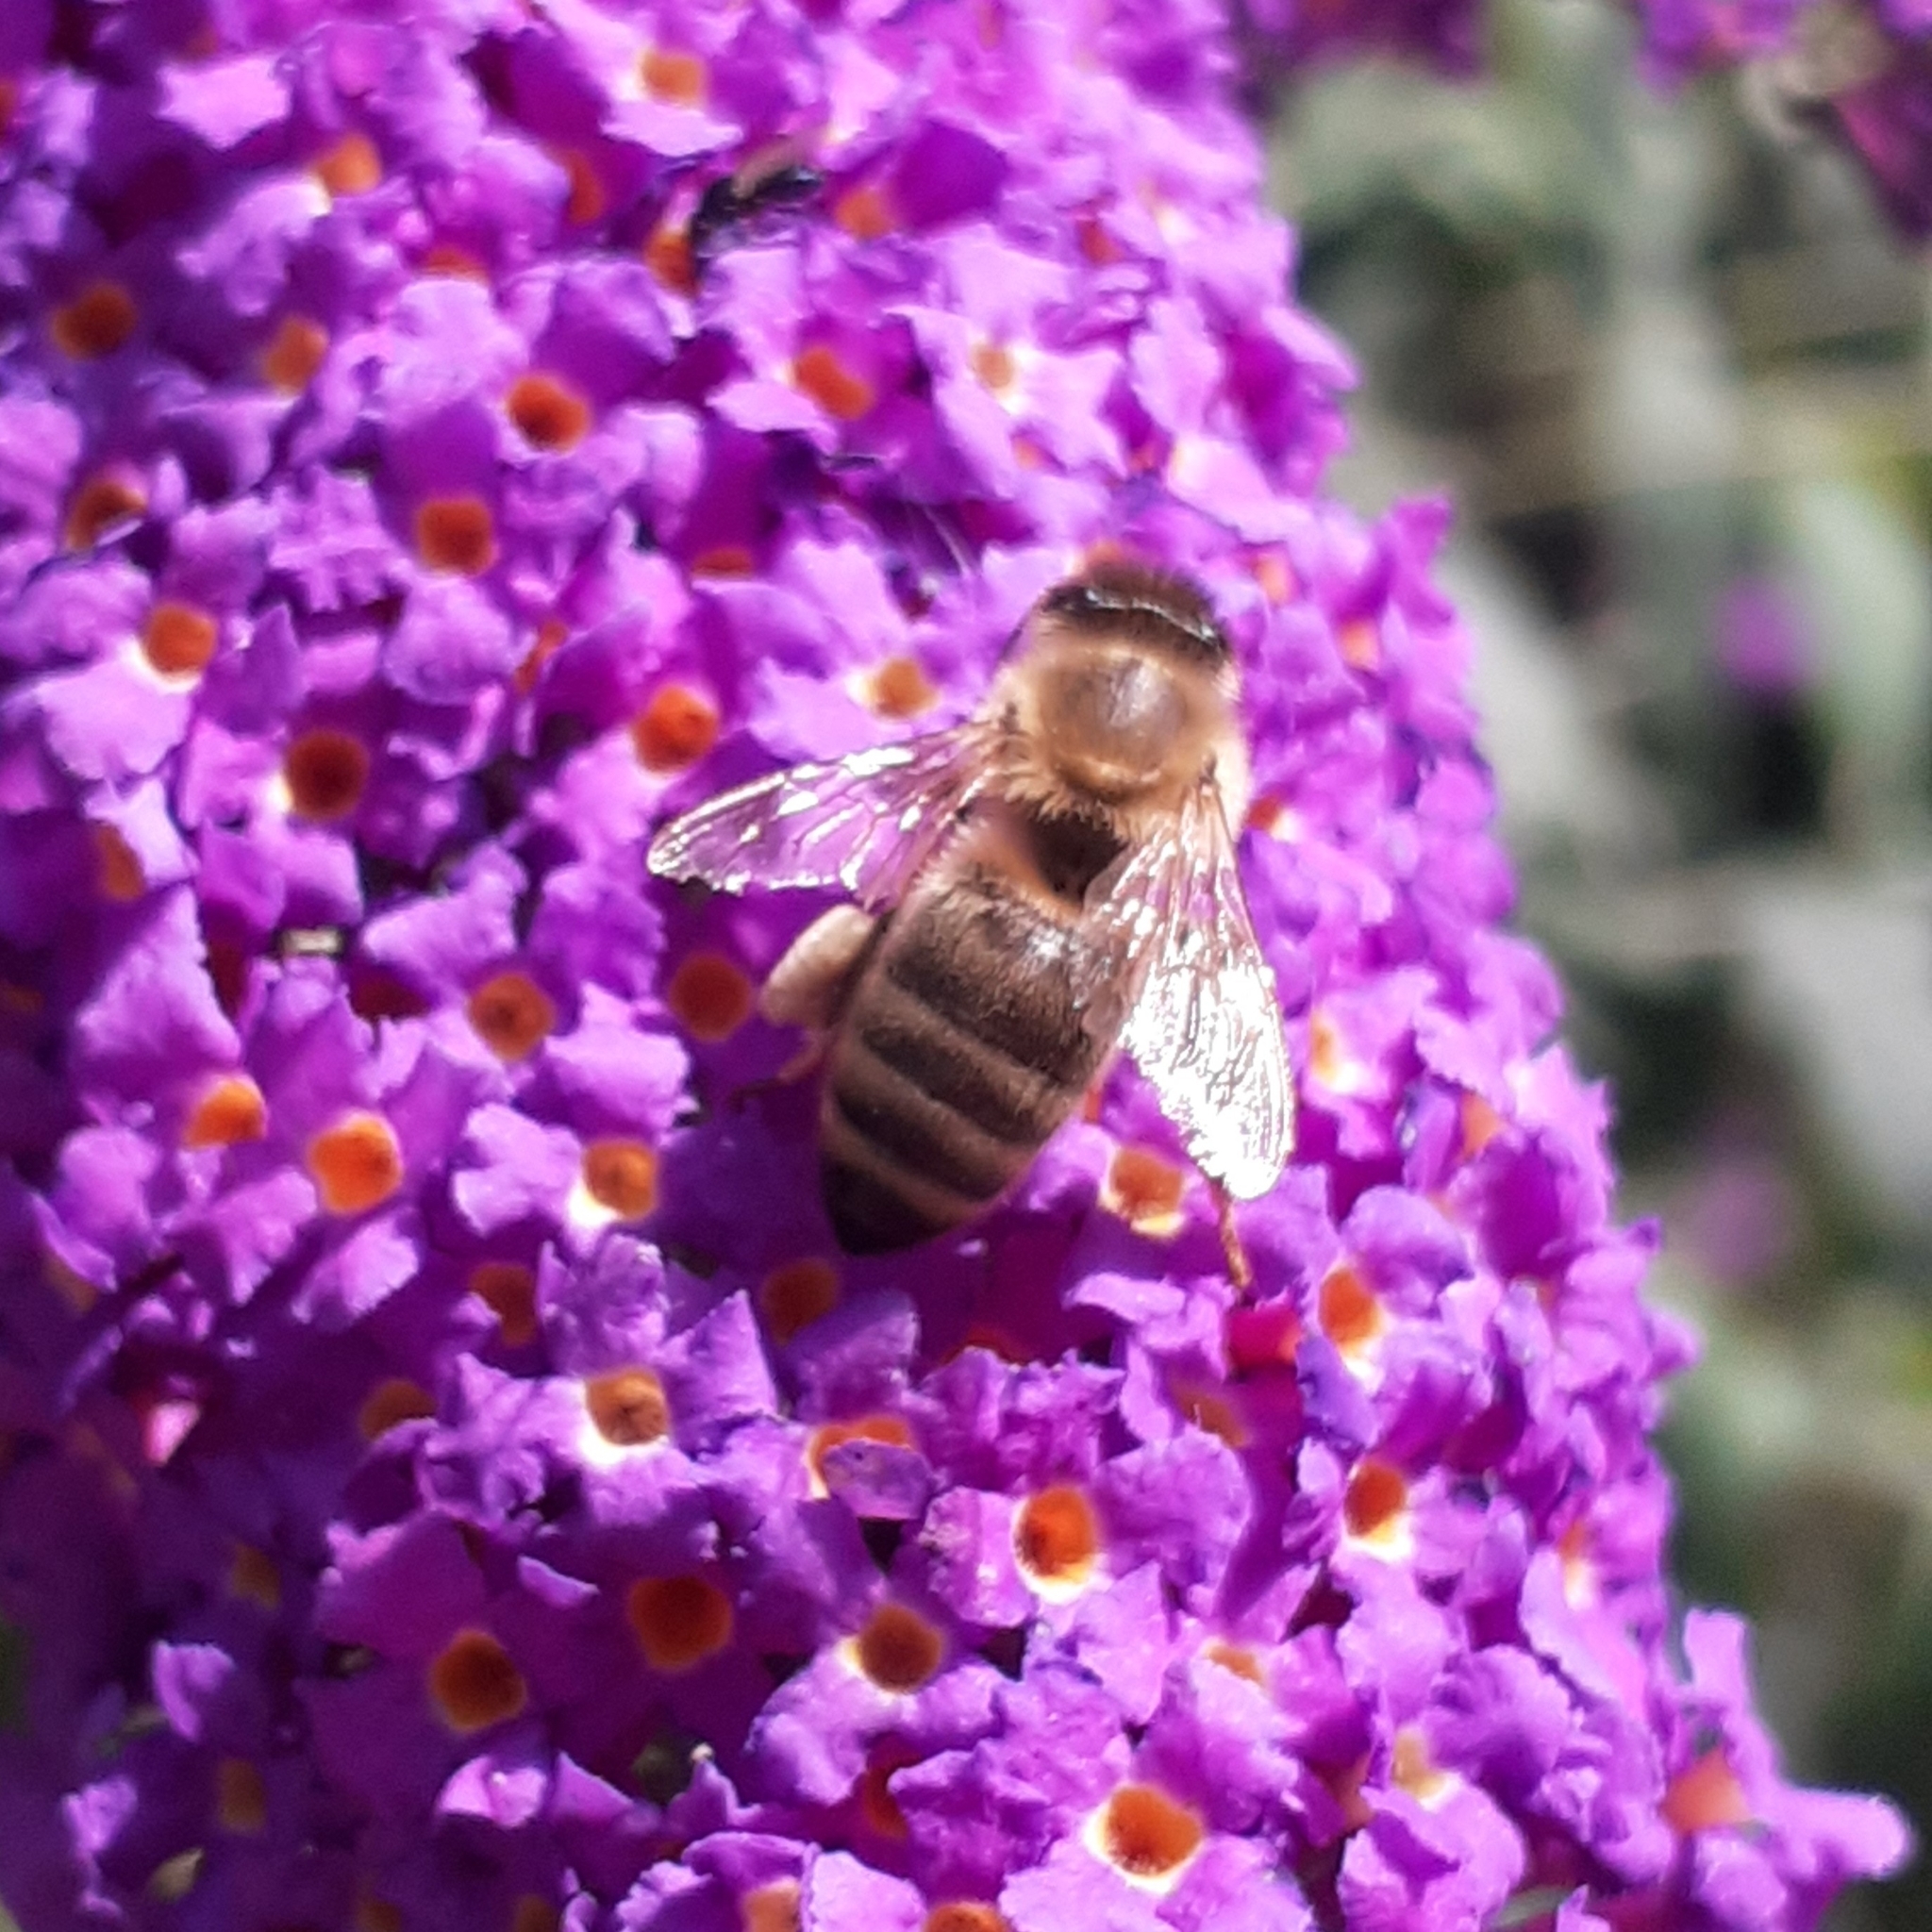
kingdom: Animalia
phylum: Arthropoda
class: Insecta
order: Hymenoptera
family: Apidae
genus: Apis
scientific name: Apis mellifera
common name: Honey bee
